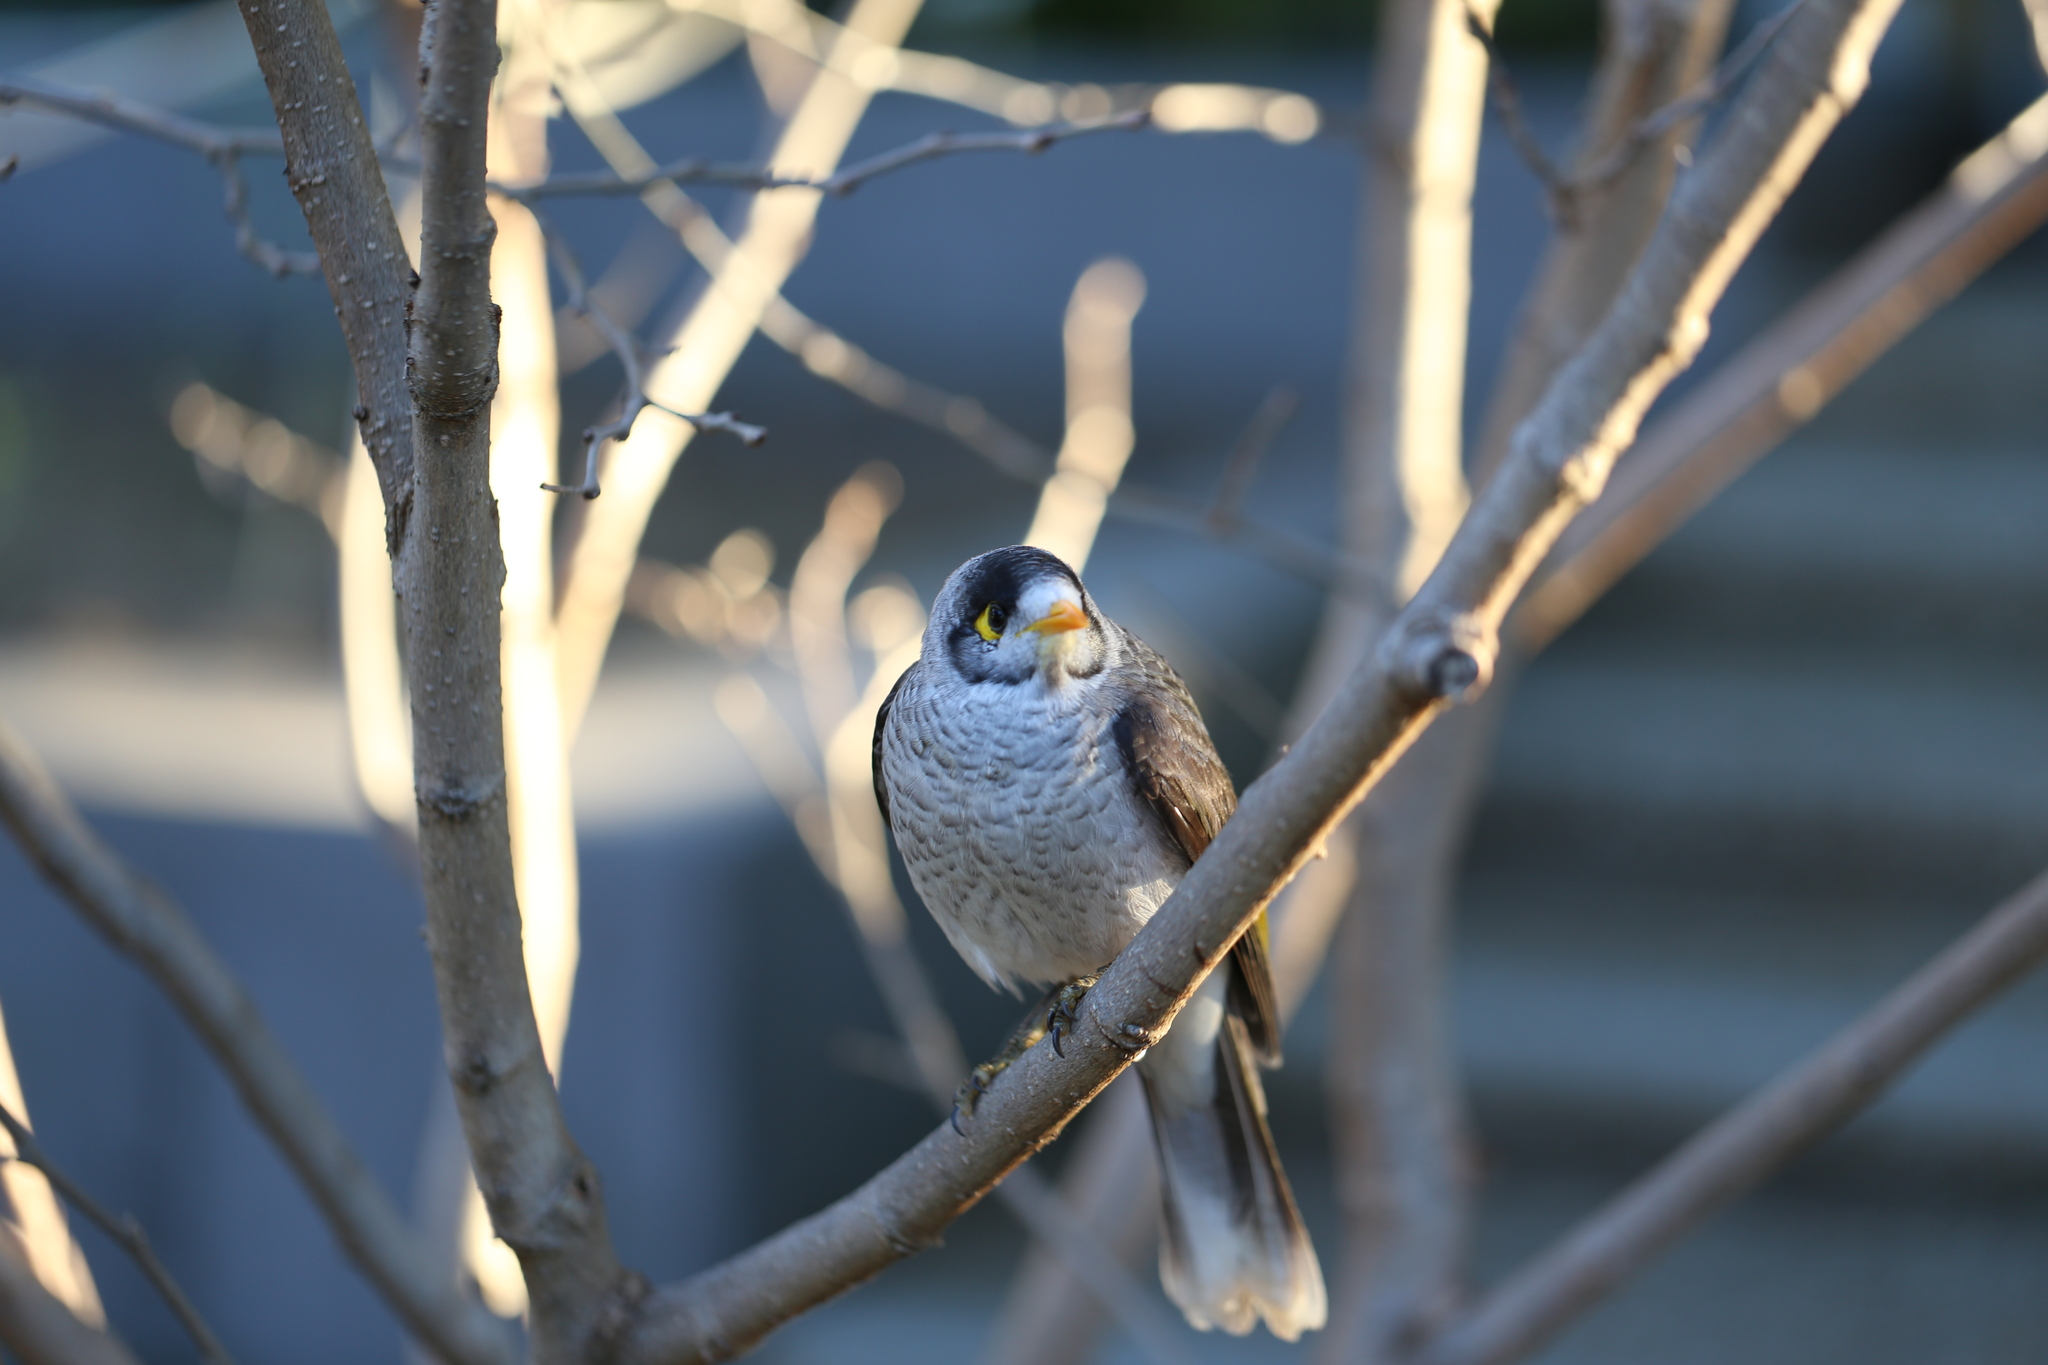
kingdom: Animalia
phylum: Chordata
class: Aves
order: Passeriformes
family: Meliphagidae
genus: Manorina
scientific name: Manorina melanocephala
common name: Noisy miner
